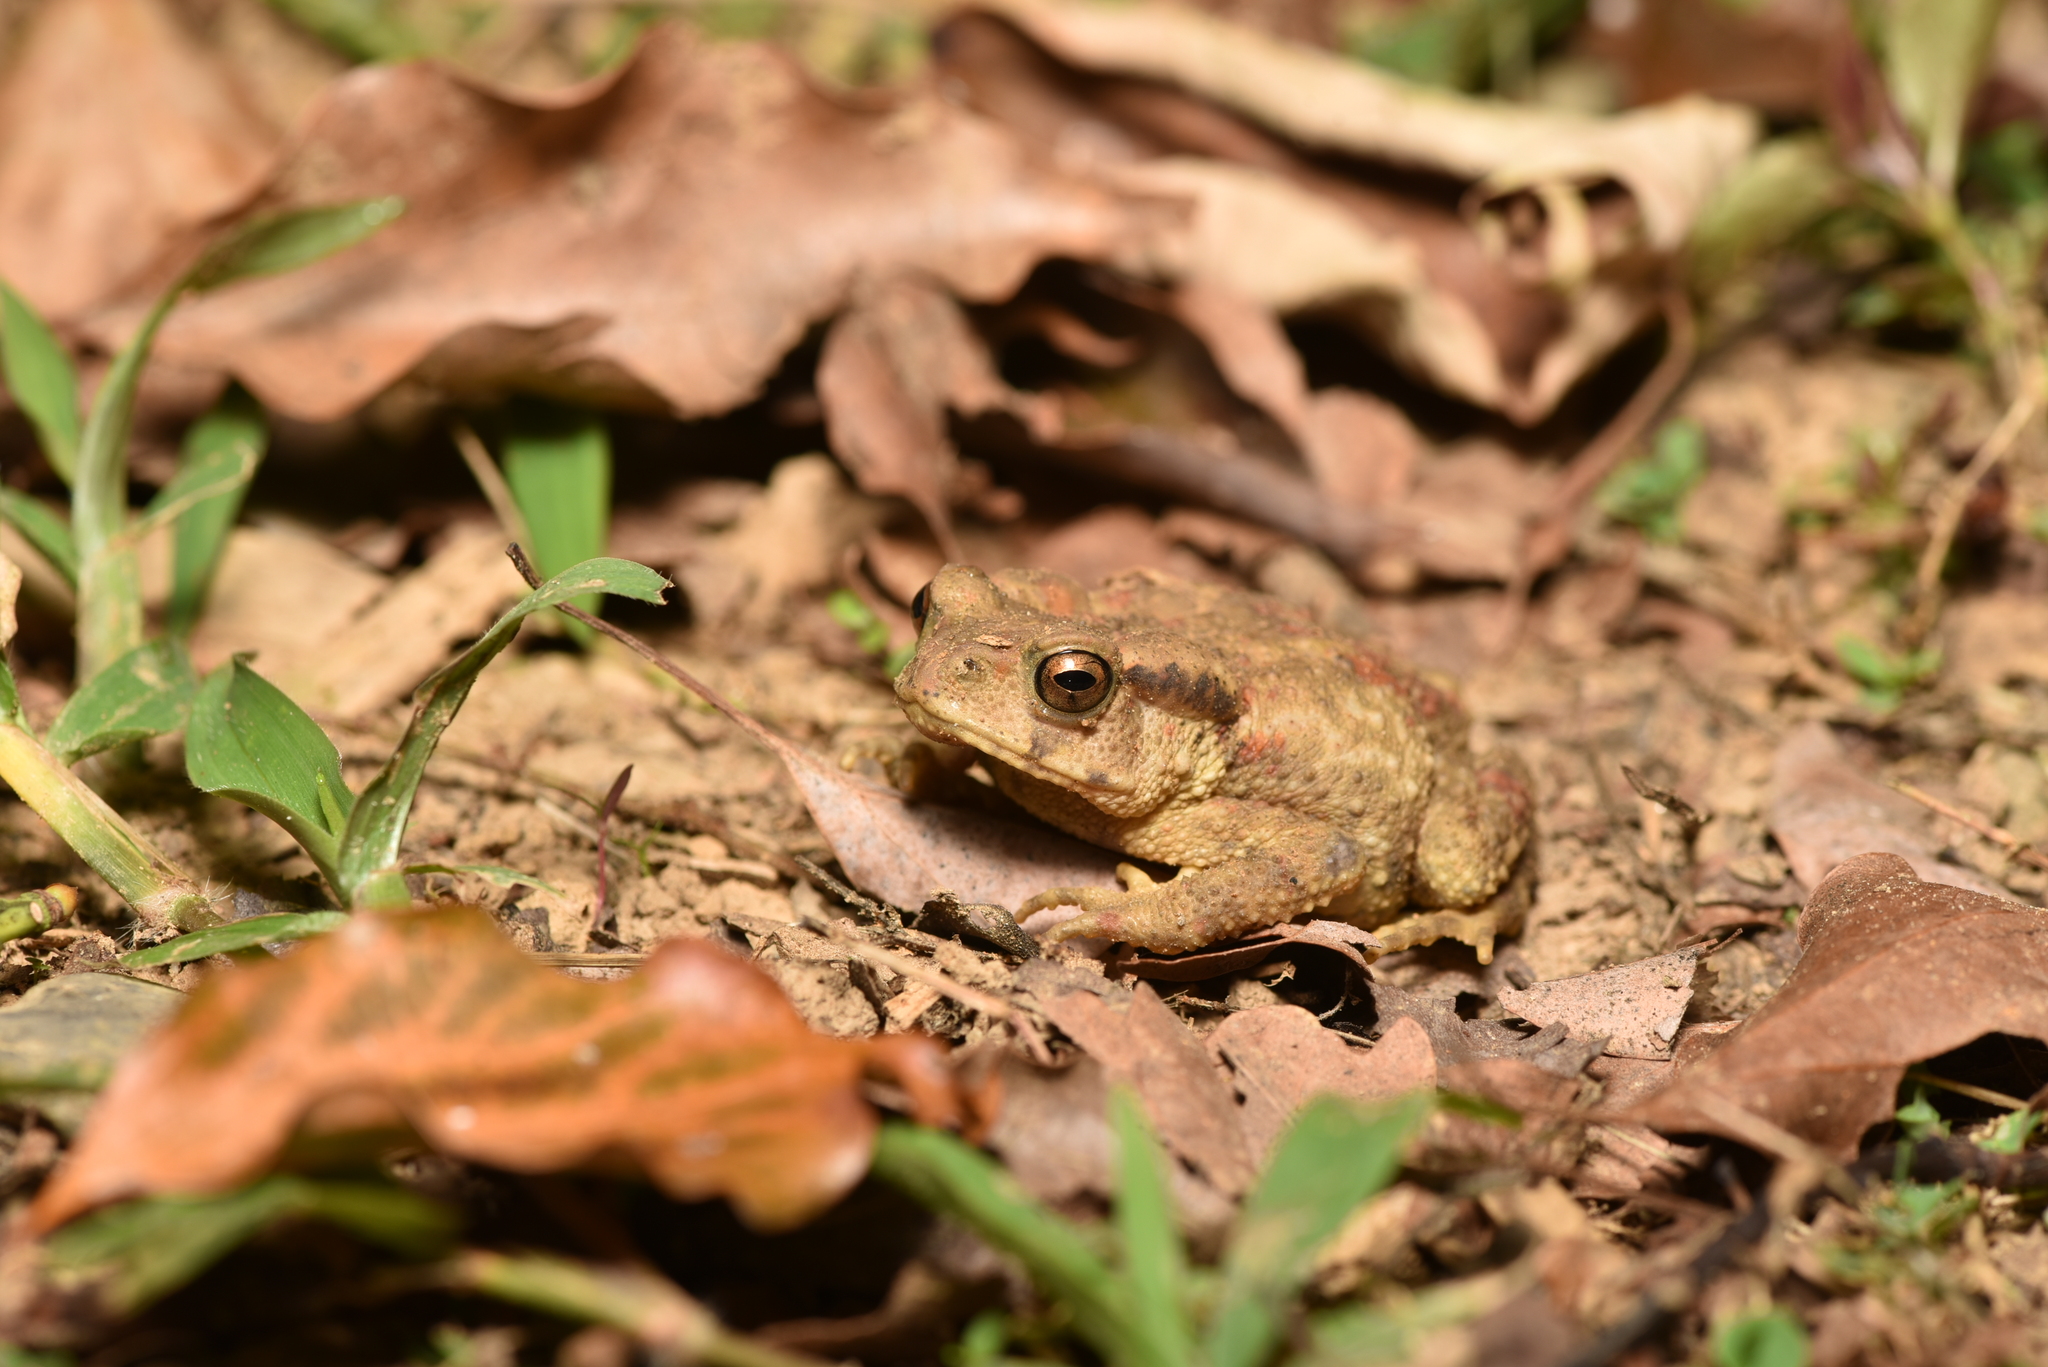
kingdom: Animalia
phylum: Chordata
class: Amphibia
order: Anura
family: Bufonidae
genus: Bufo
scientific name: Bufo bankorensis
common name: Bankor toad
